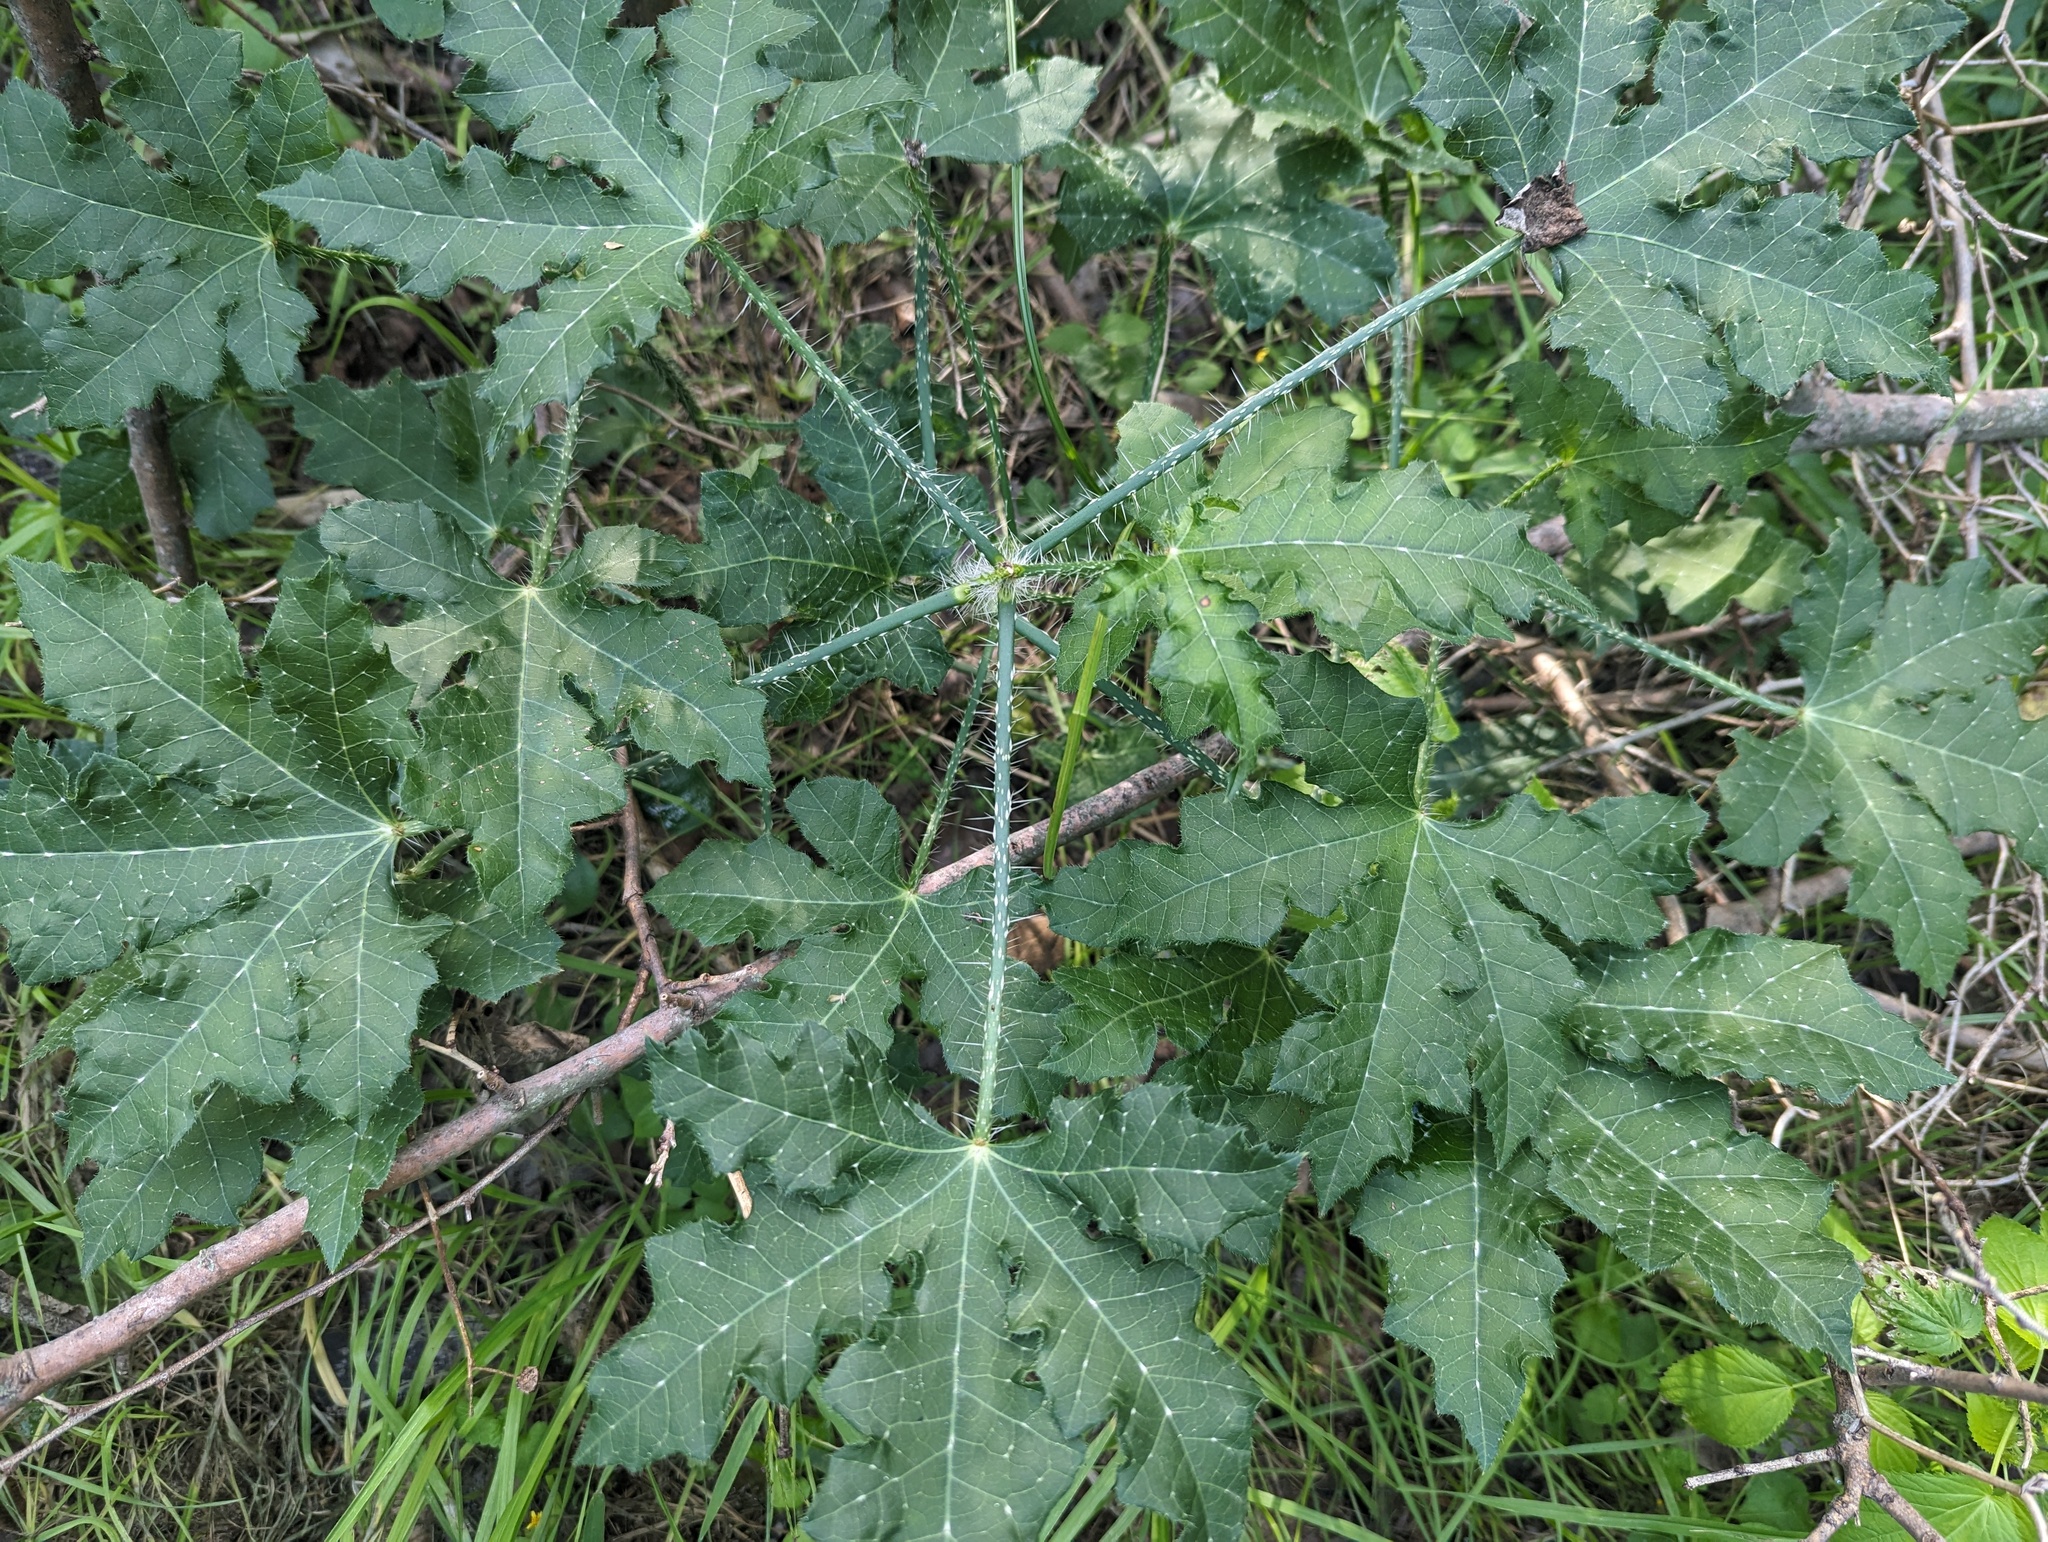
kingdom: Plantae
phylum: Tracheophyta
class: Magnoliopsida
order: Malpighiales
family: Euphorbiaceae
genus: Cnidoscolus
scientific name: Cnidoscolus texanus
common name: Texas bull-nettle
